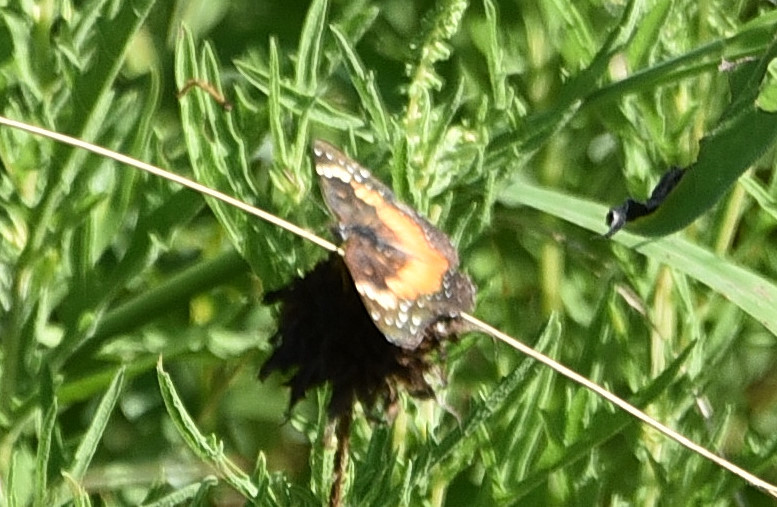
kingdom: Animalia
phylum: Arthropoda
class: Insecta
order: Lepidoptera
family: Nymphalidae
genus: Chlosyne
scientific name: Chlosyne lacinia
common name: Bordered patch
